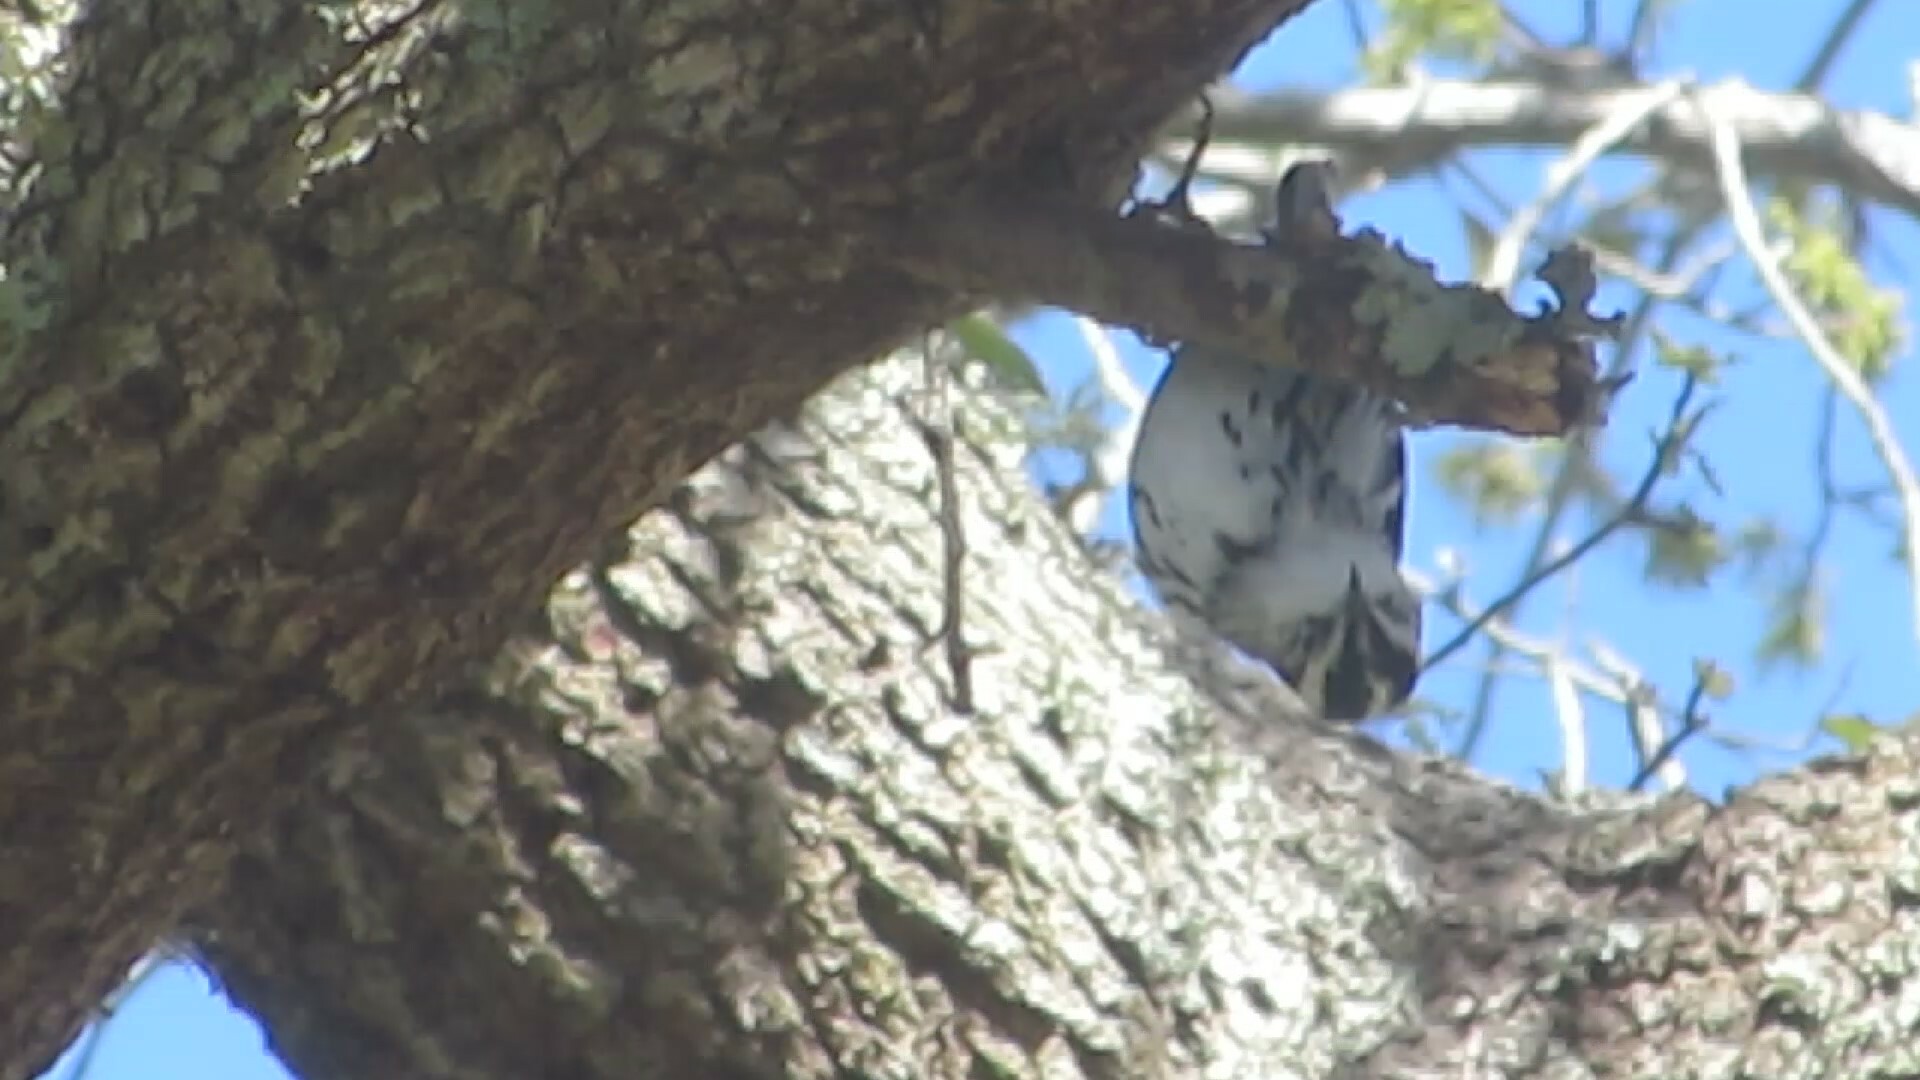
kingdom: Animalia
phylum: Chordata
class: Aves
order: Passeriformes
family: Parulidae
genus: Mniotilta
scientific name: Mniotilta varia
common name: Black-and-white warbler
